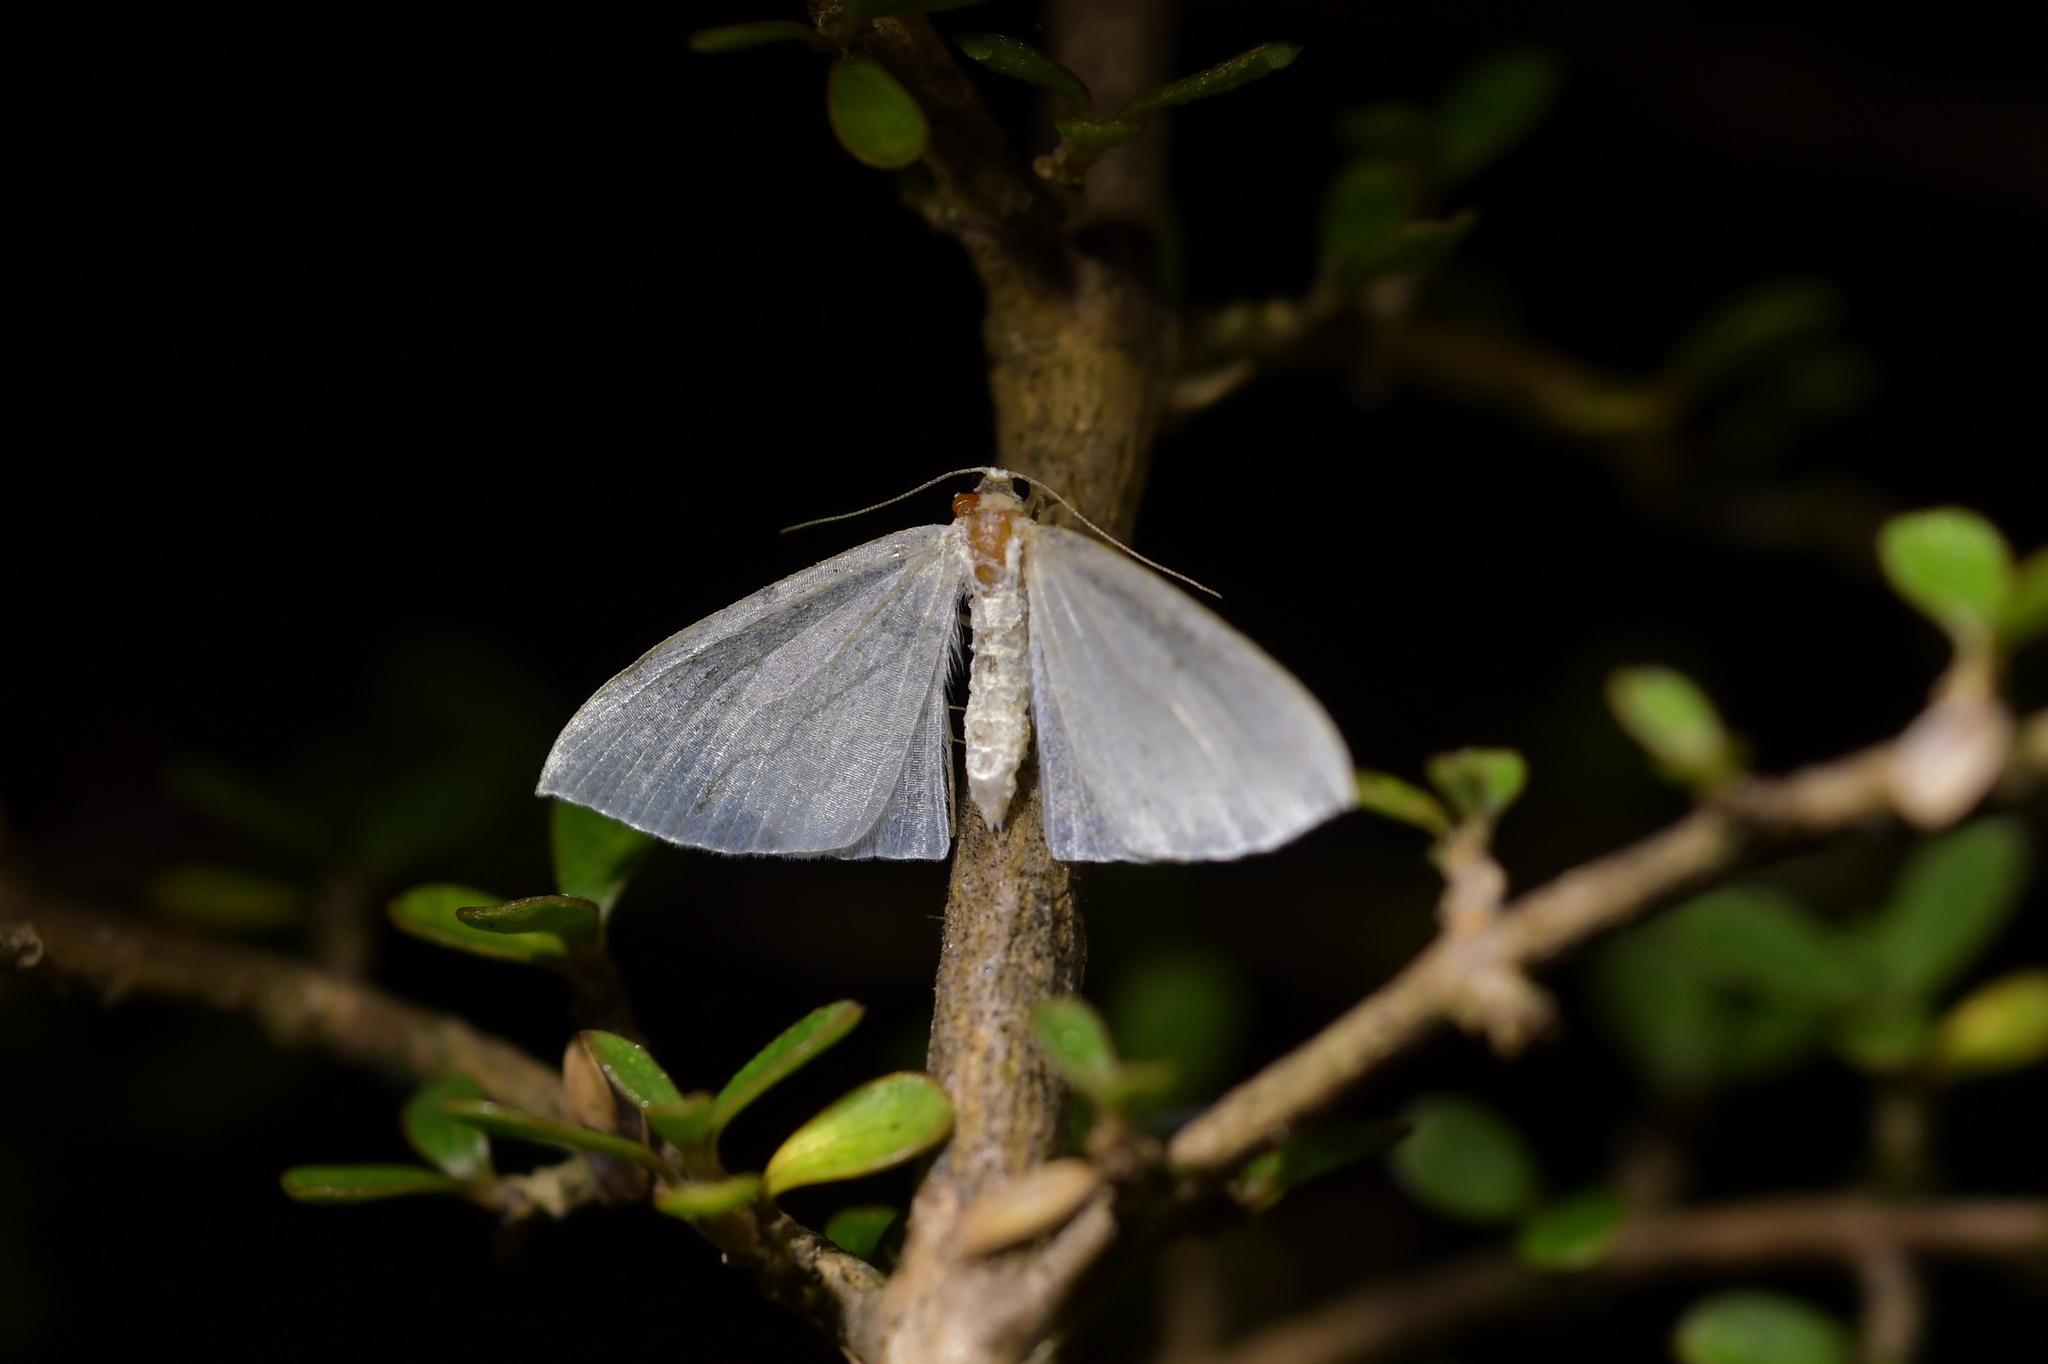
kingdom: Animalia
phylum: Arthropoda
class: Insecta
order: Lepidoptera
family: Geometridae
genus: Poecilasthena
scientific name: Poecilasthena pulchraria
